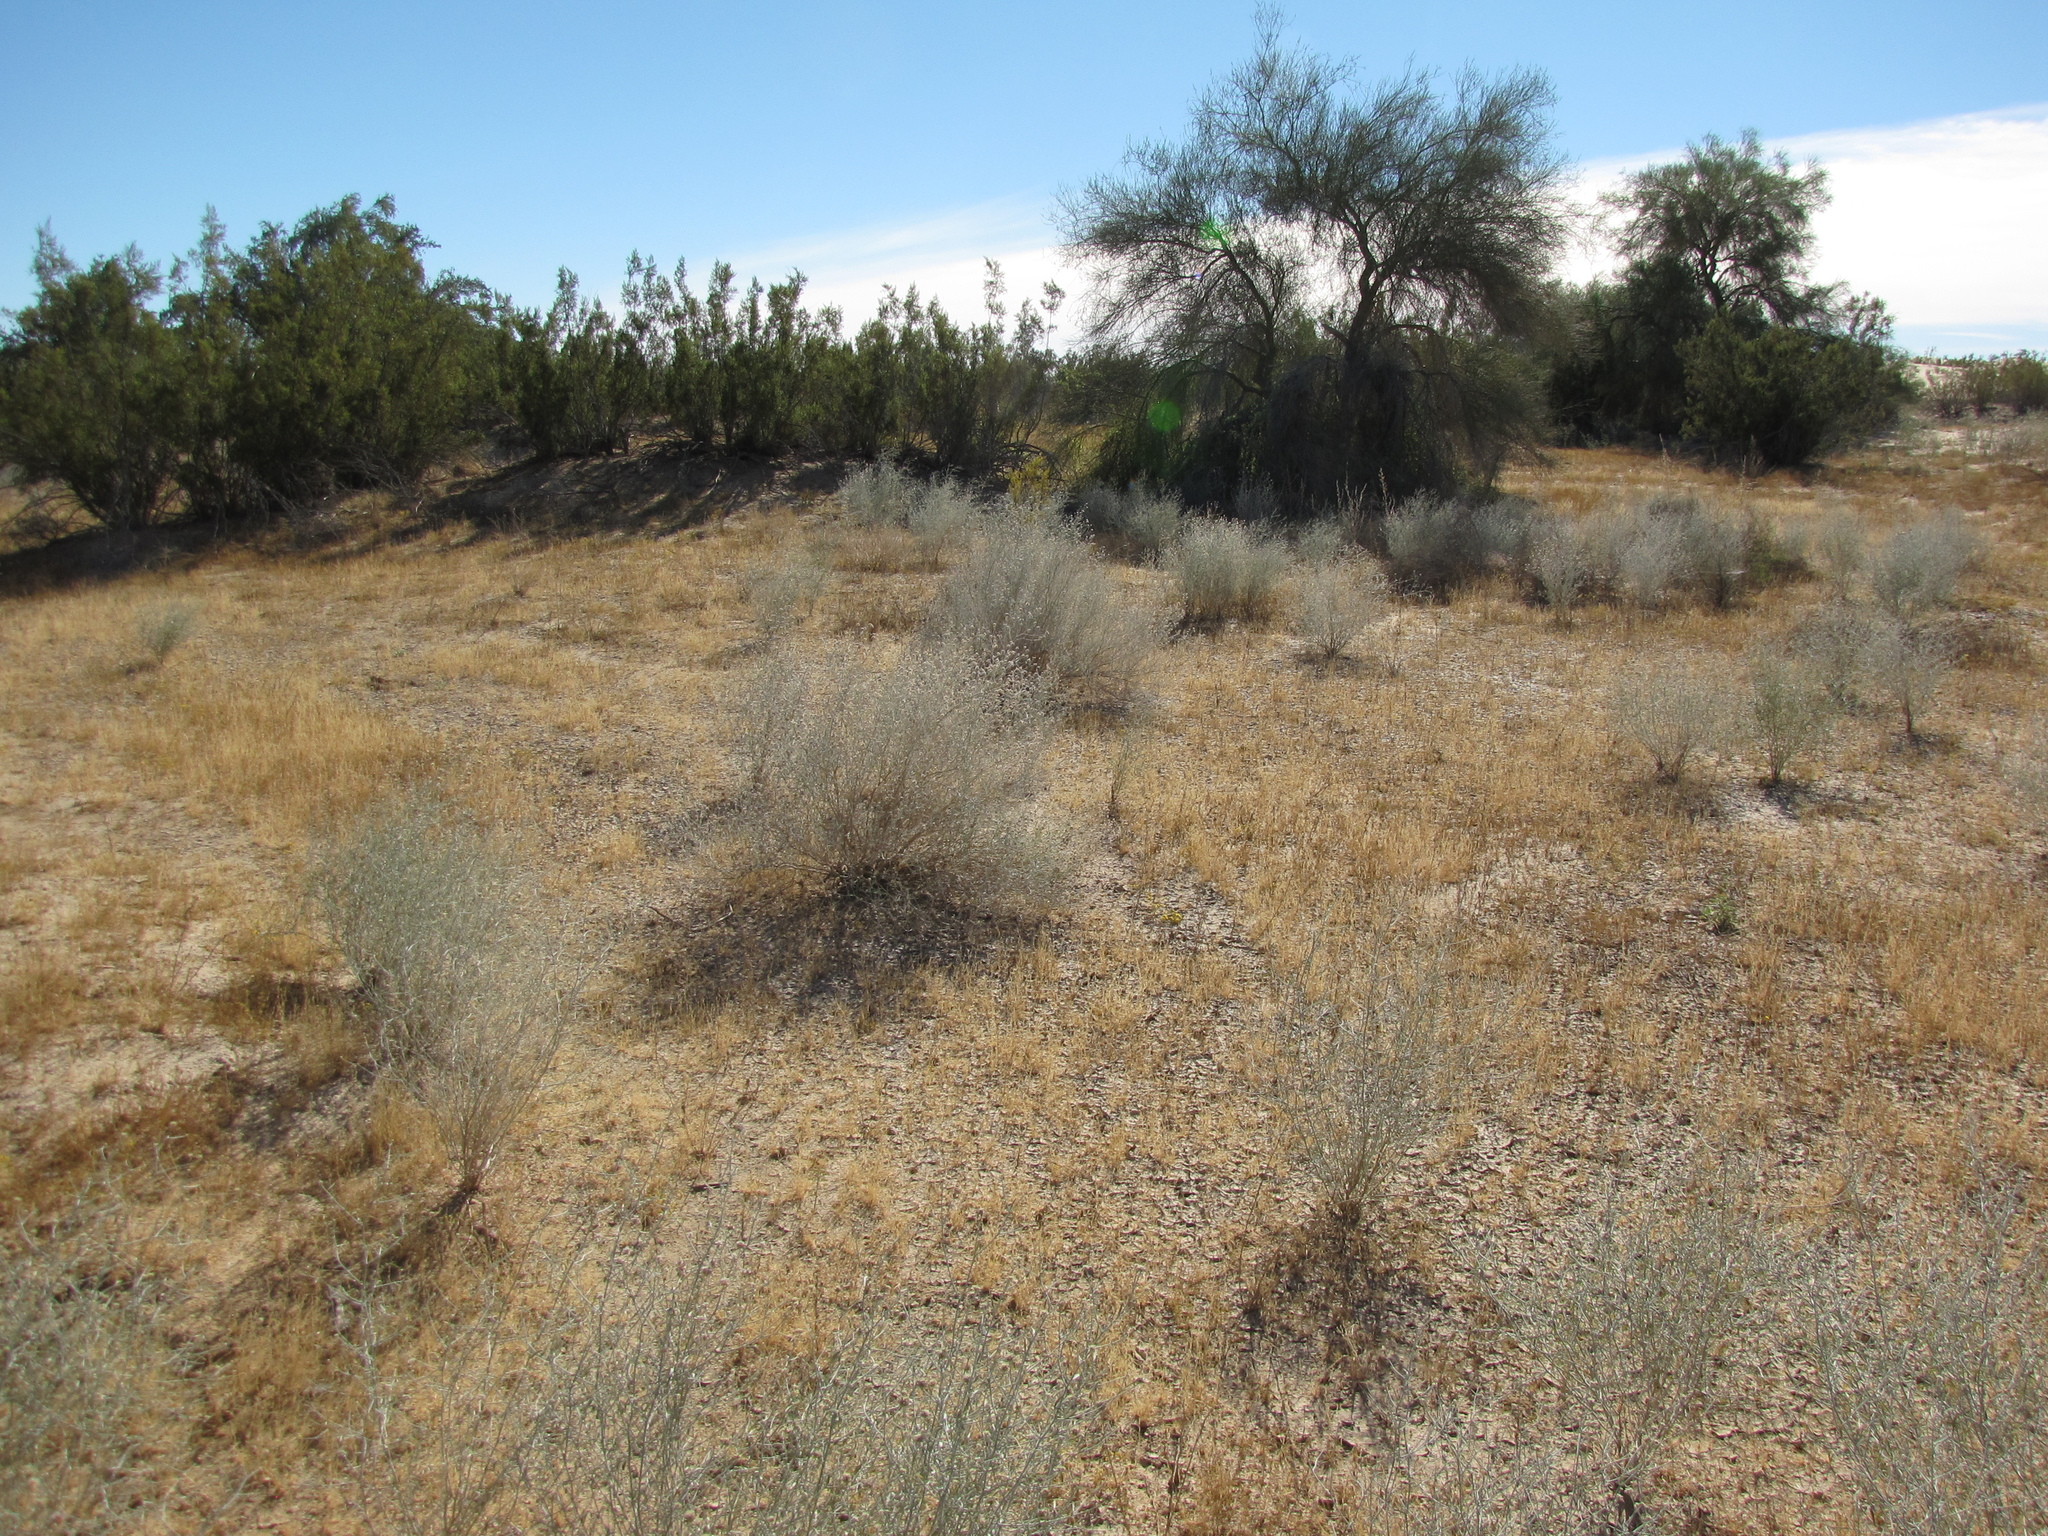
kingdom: Plantae
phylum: Tracheophyta
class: Magnoliopsida
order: Fabales
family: Fabaceae
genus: Psorothamnus
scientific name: Psorothamnus emoryi
